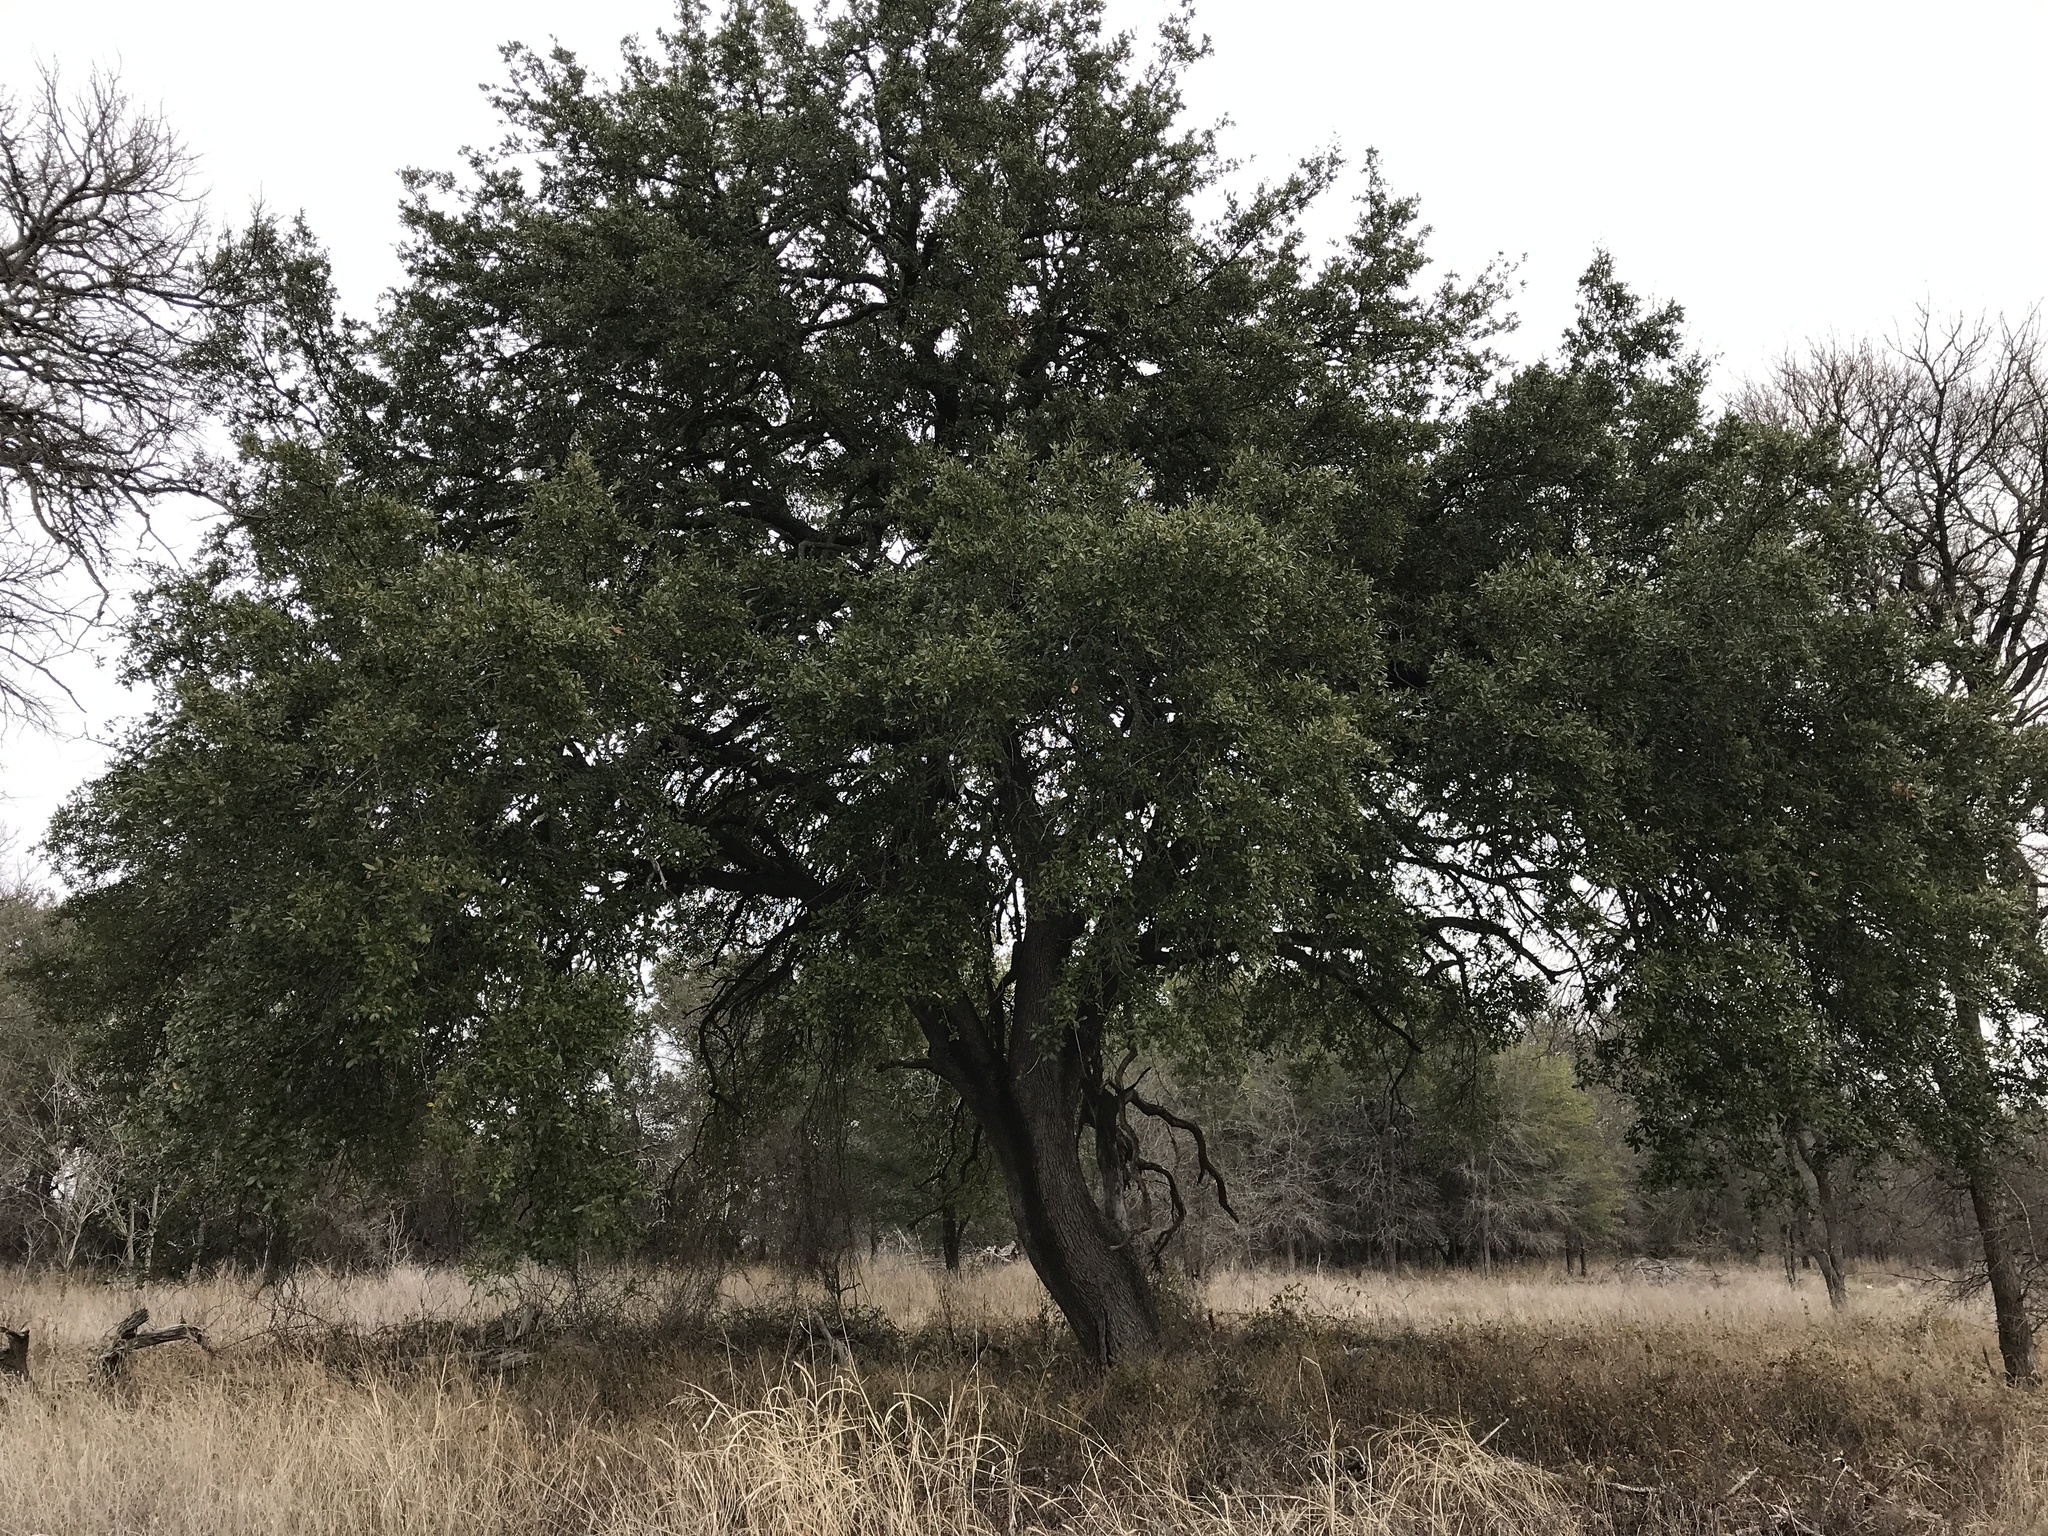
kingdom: Plantae
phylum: Tracheophyta
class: Magnoliopsida
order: Fagales
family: Fagaceae
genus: Quercus
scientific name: Quercus fusiformis
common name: Texas live oak
